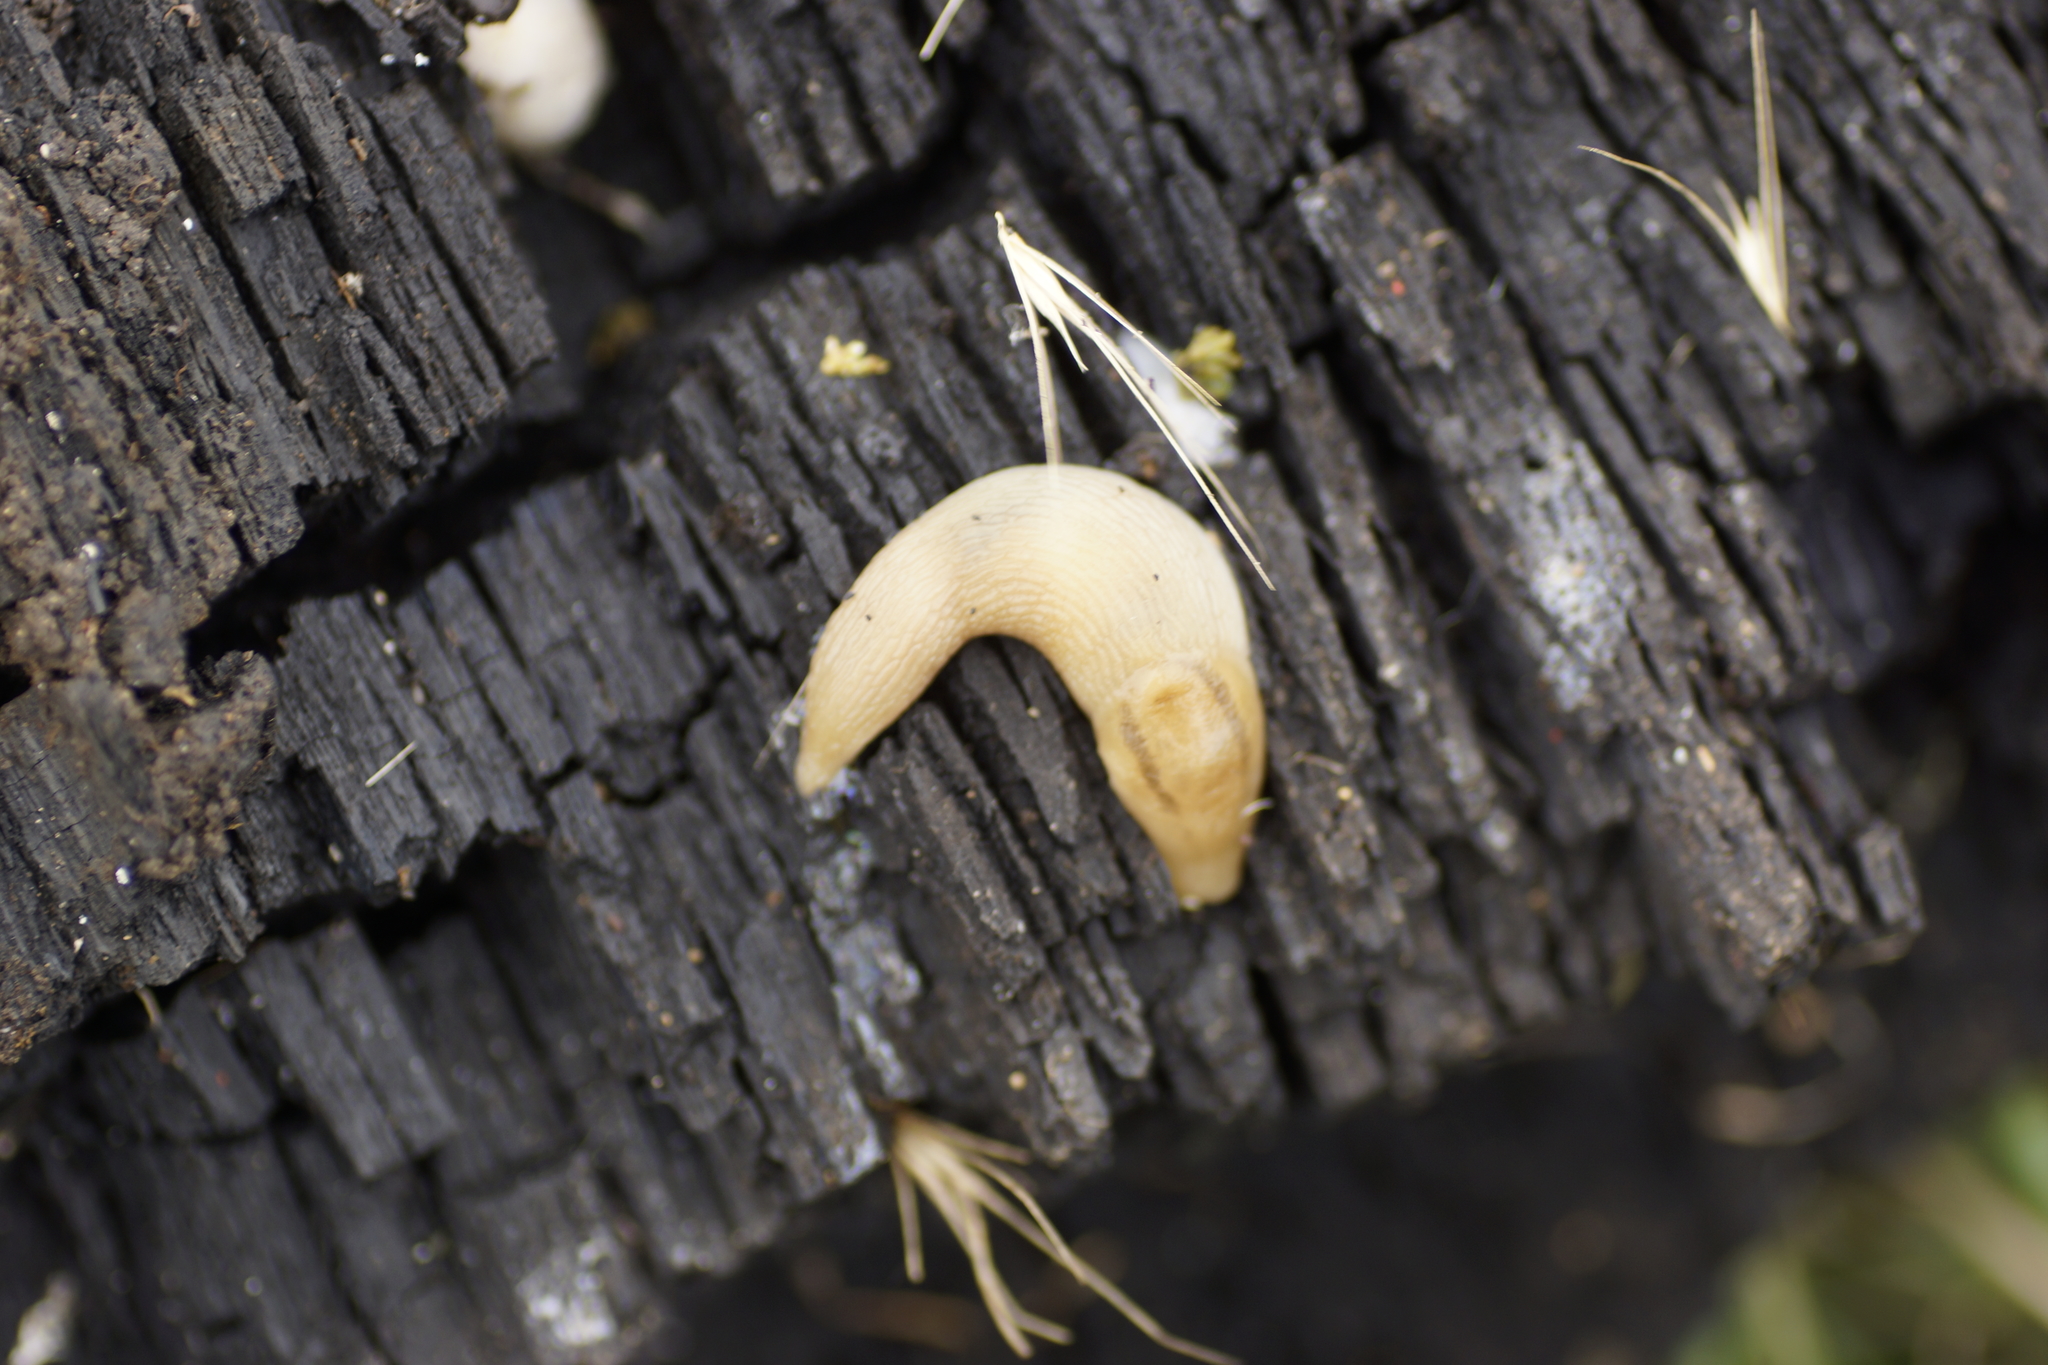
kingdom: Animalia
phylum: Mollusca
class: Gastropoda
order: Stylommatophora
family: Limacidae
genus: Ambigolimax
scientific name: Ambigolimax
